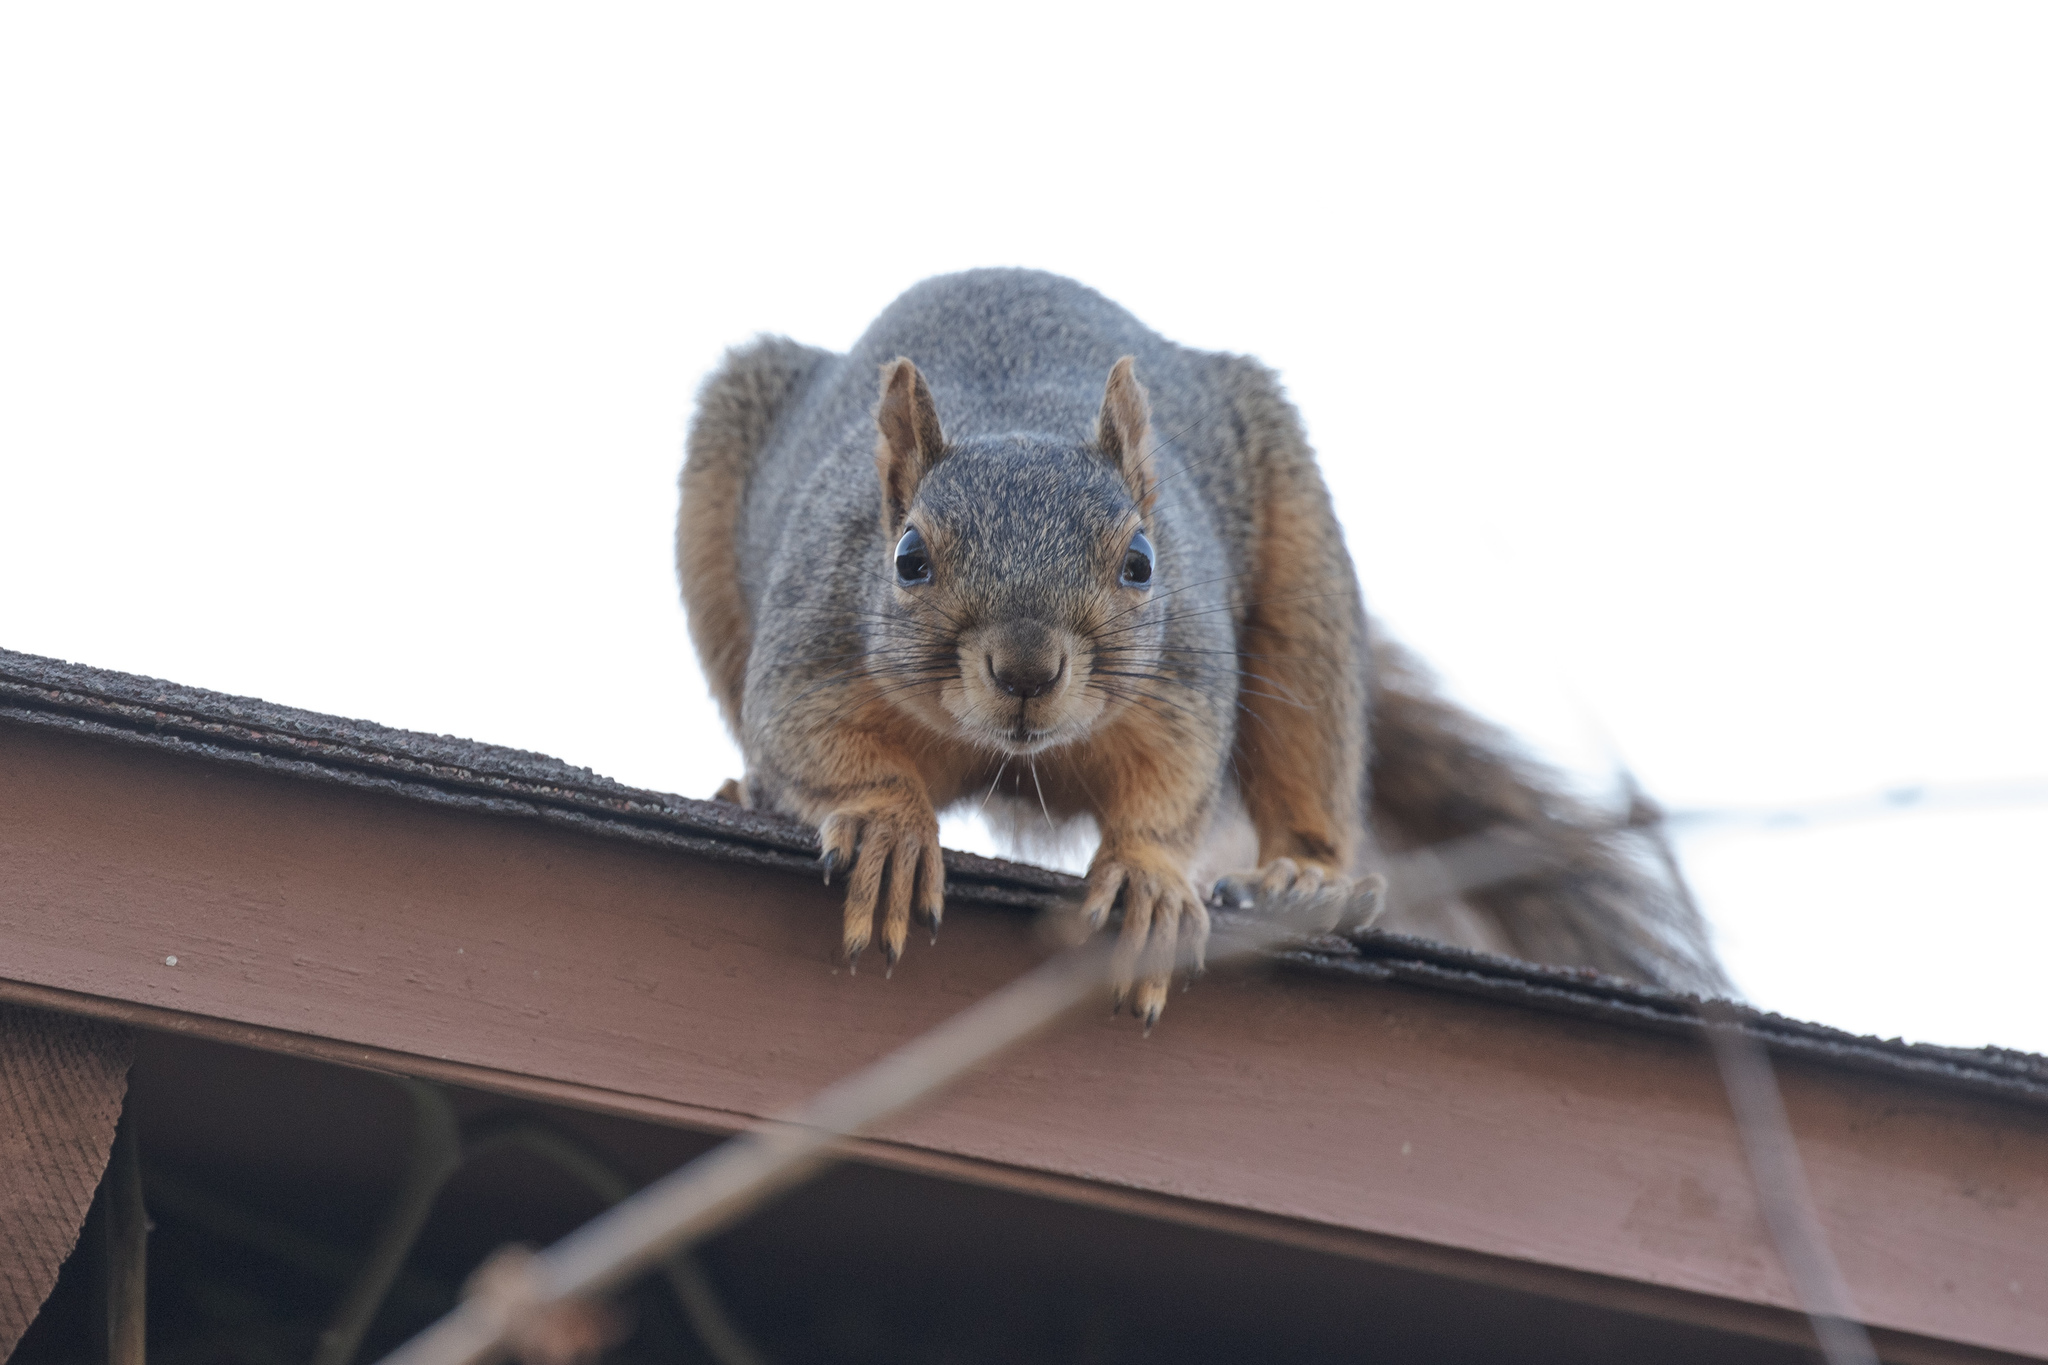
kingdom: Animalia
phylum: Chordata
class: Mammalia
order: Rodentia
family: Sciuridae
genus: Sciurus
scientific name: Sciurus niger
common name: Fox squirrel
